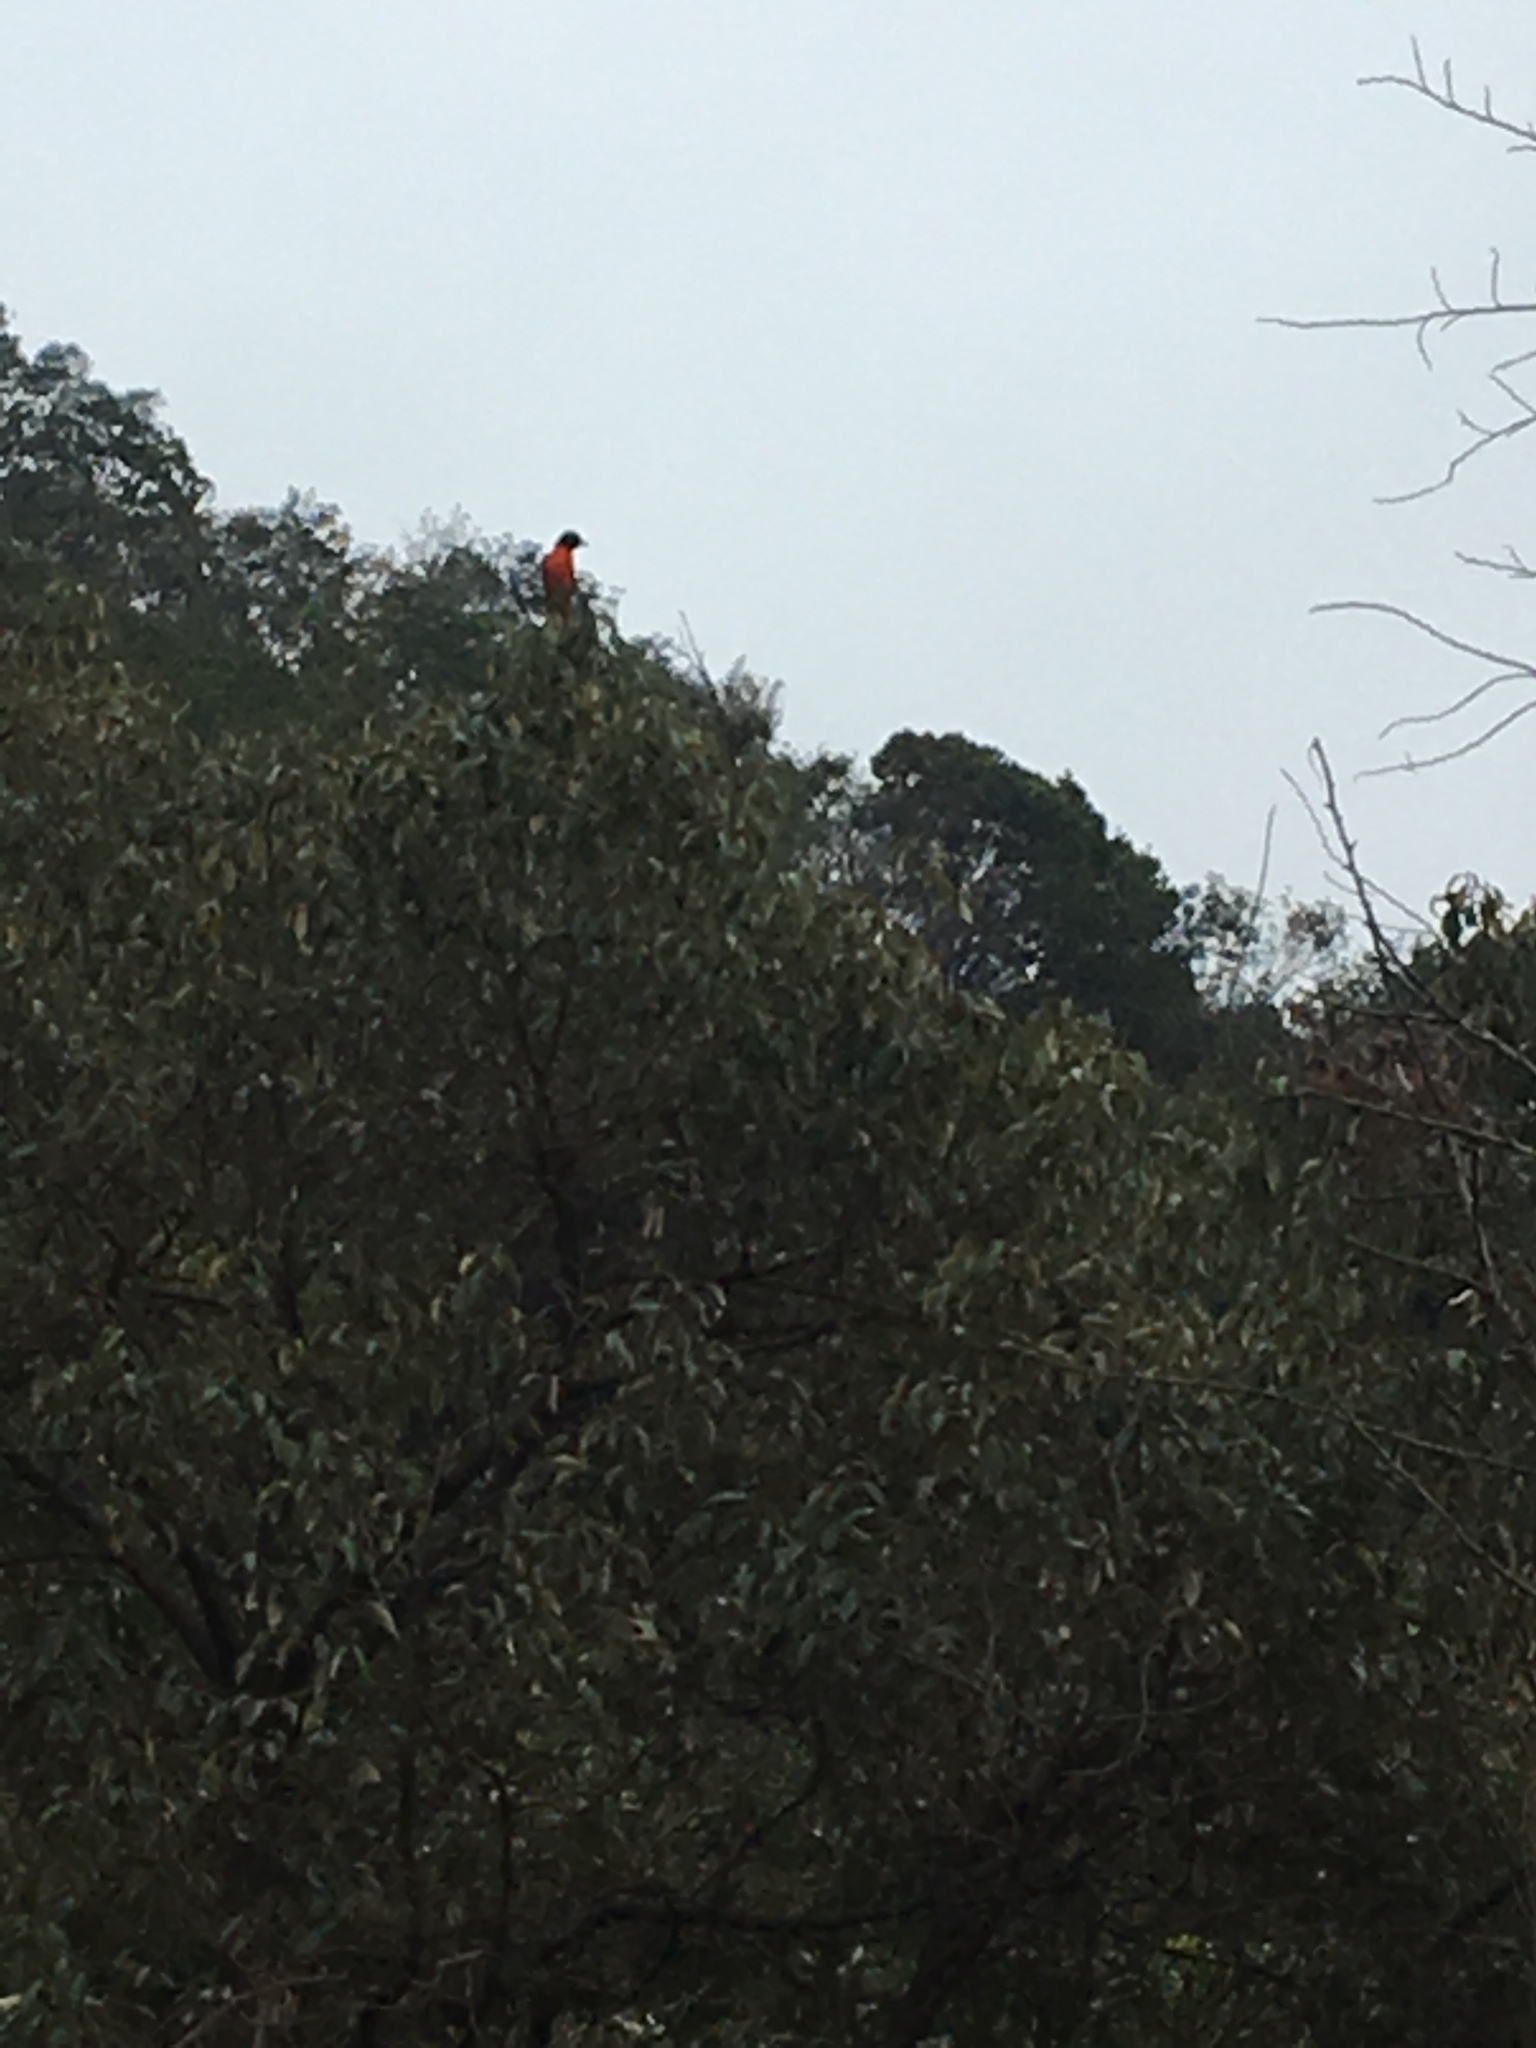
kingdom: Animalia
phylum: Chordata
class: Aves
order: Passeriformes
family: Campephagidae
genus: Pericrocotus
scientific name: Pericrocotus speciosus
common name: Scarlet minivet
